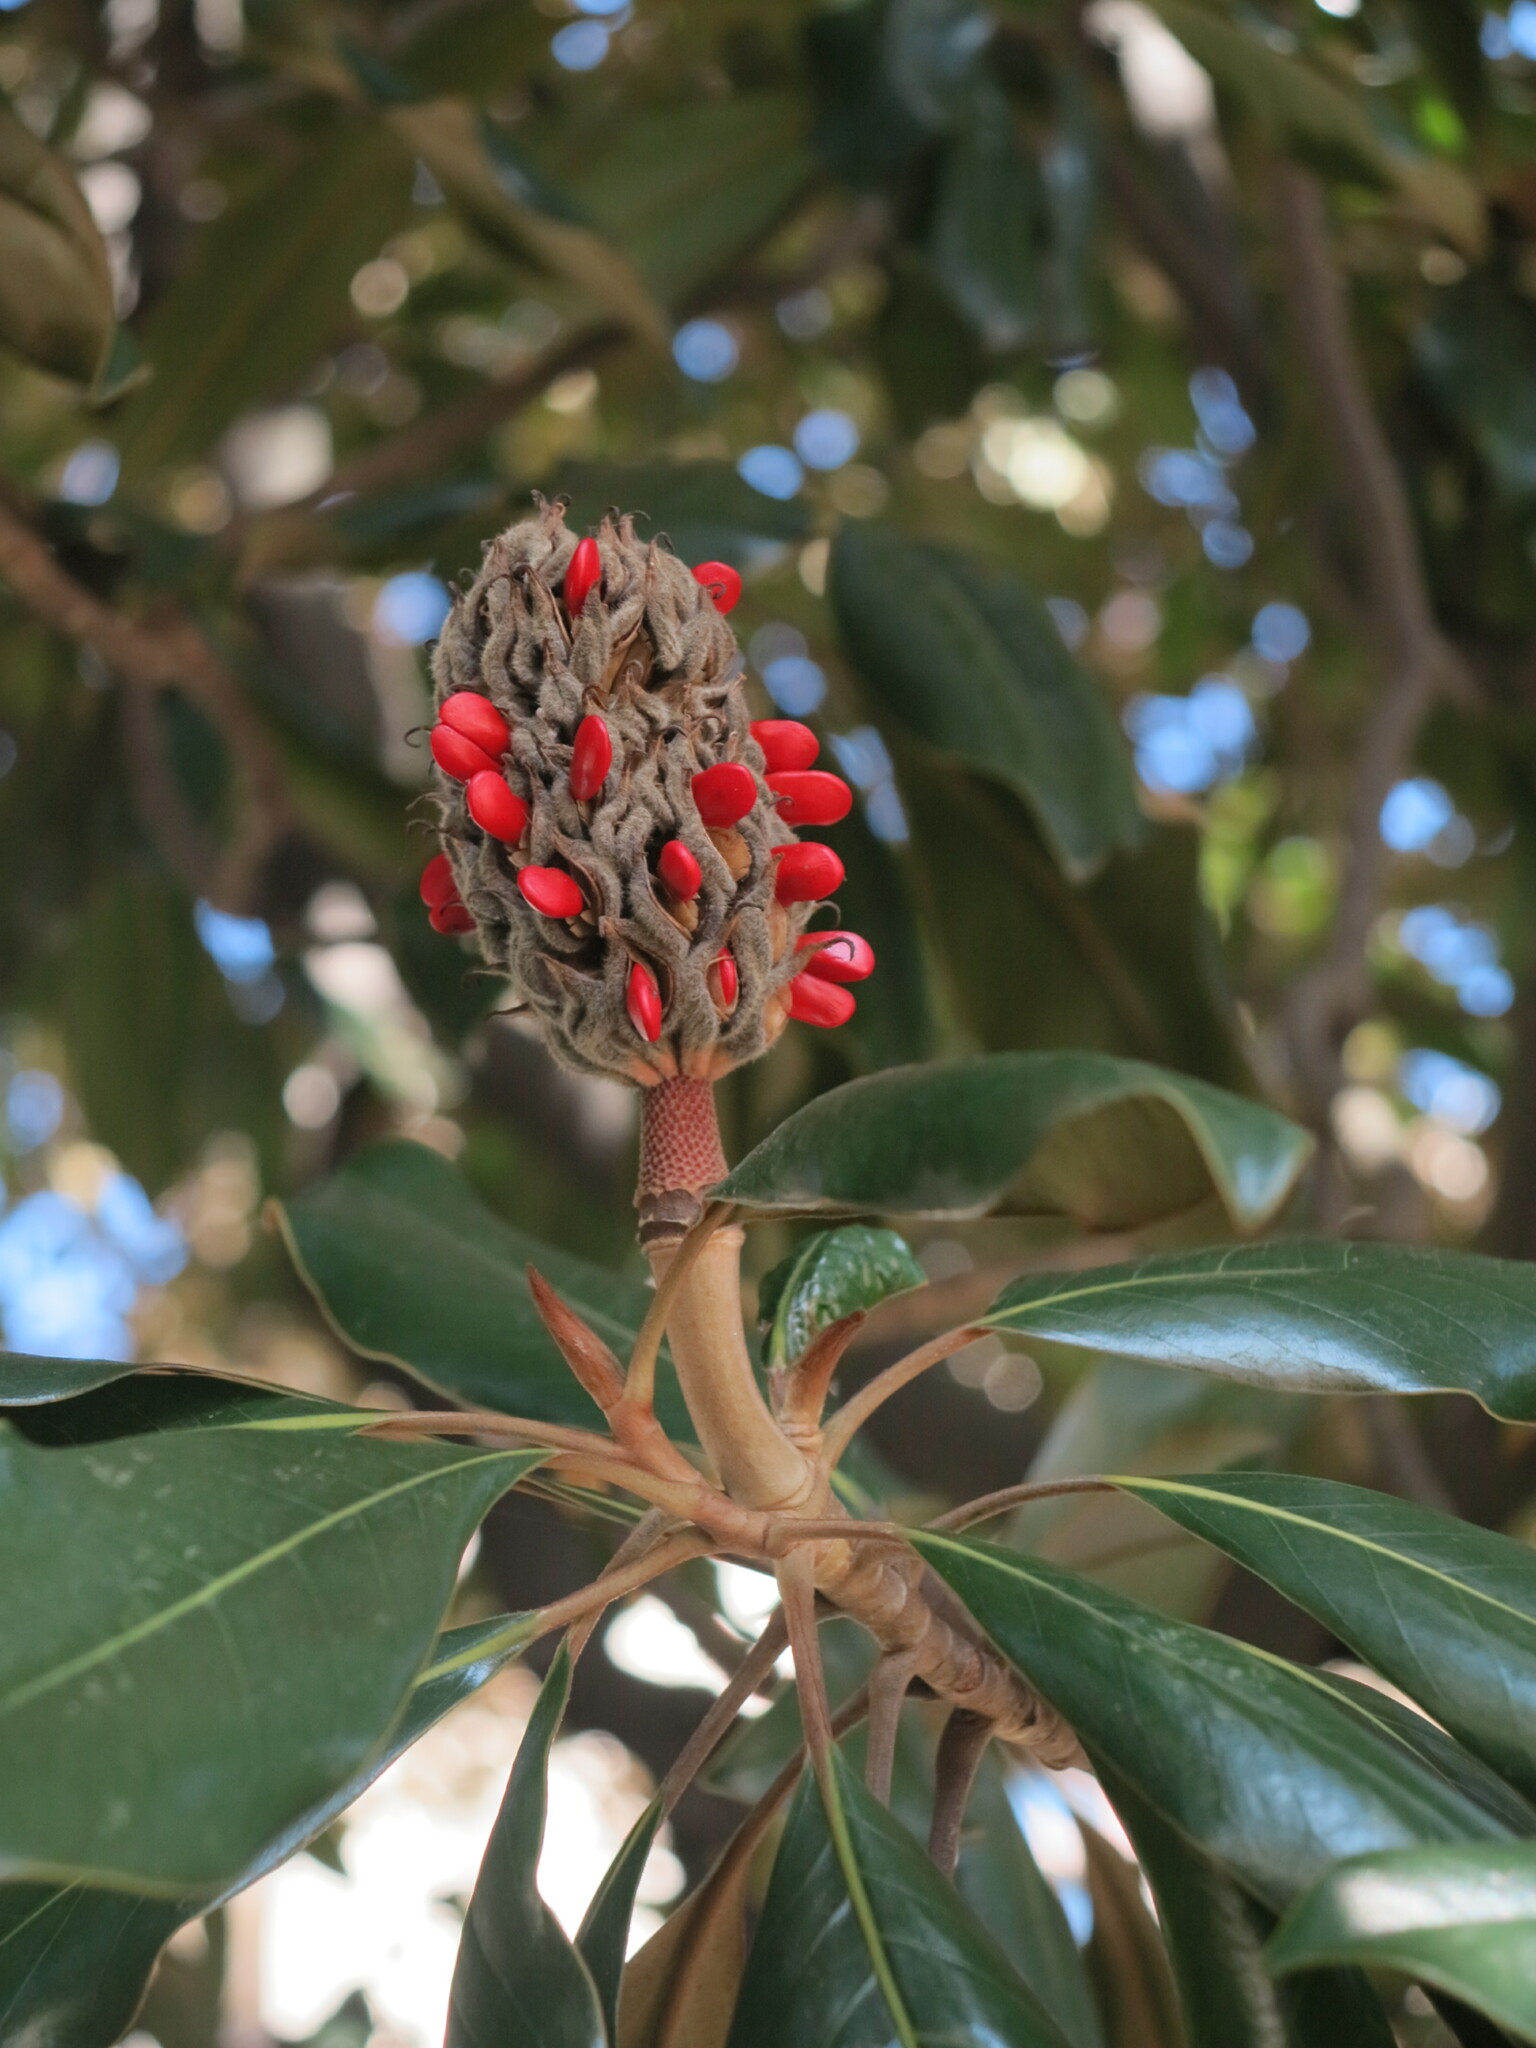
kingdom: Plantae
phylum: Tracheophyta
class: Magnoliopsida
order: Magnoliales
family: Magnoliaceae
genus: Magnolia
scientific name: Magnolia grandiflora
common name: Southern magnolia
